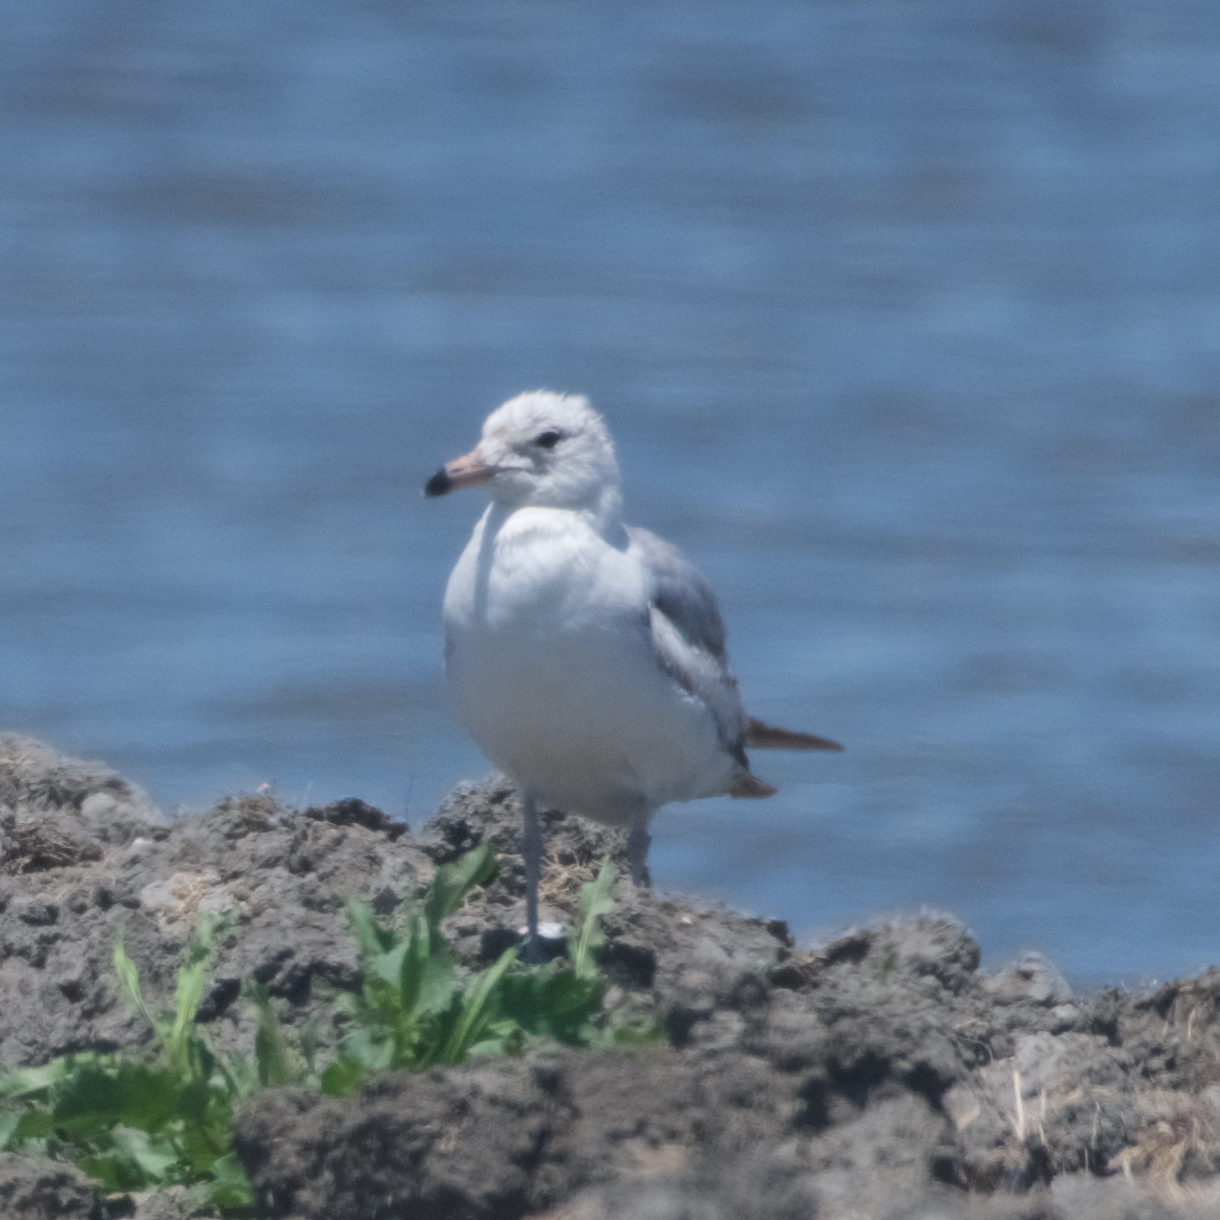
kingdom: Animalia
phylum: Chordata
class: Aves
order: Charadriiformes
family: Laridae
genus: Larus
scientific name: Larus delawarensis
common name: Ring-billed gull
